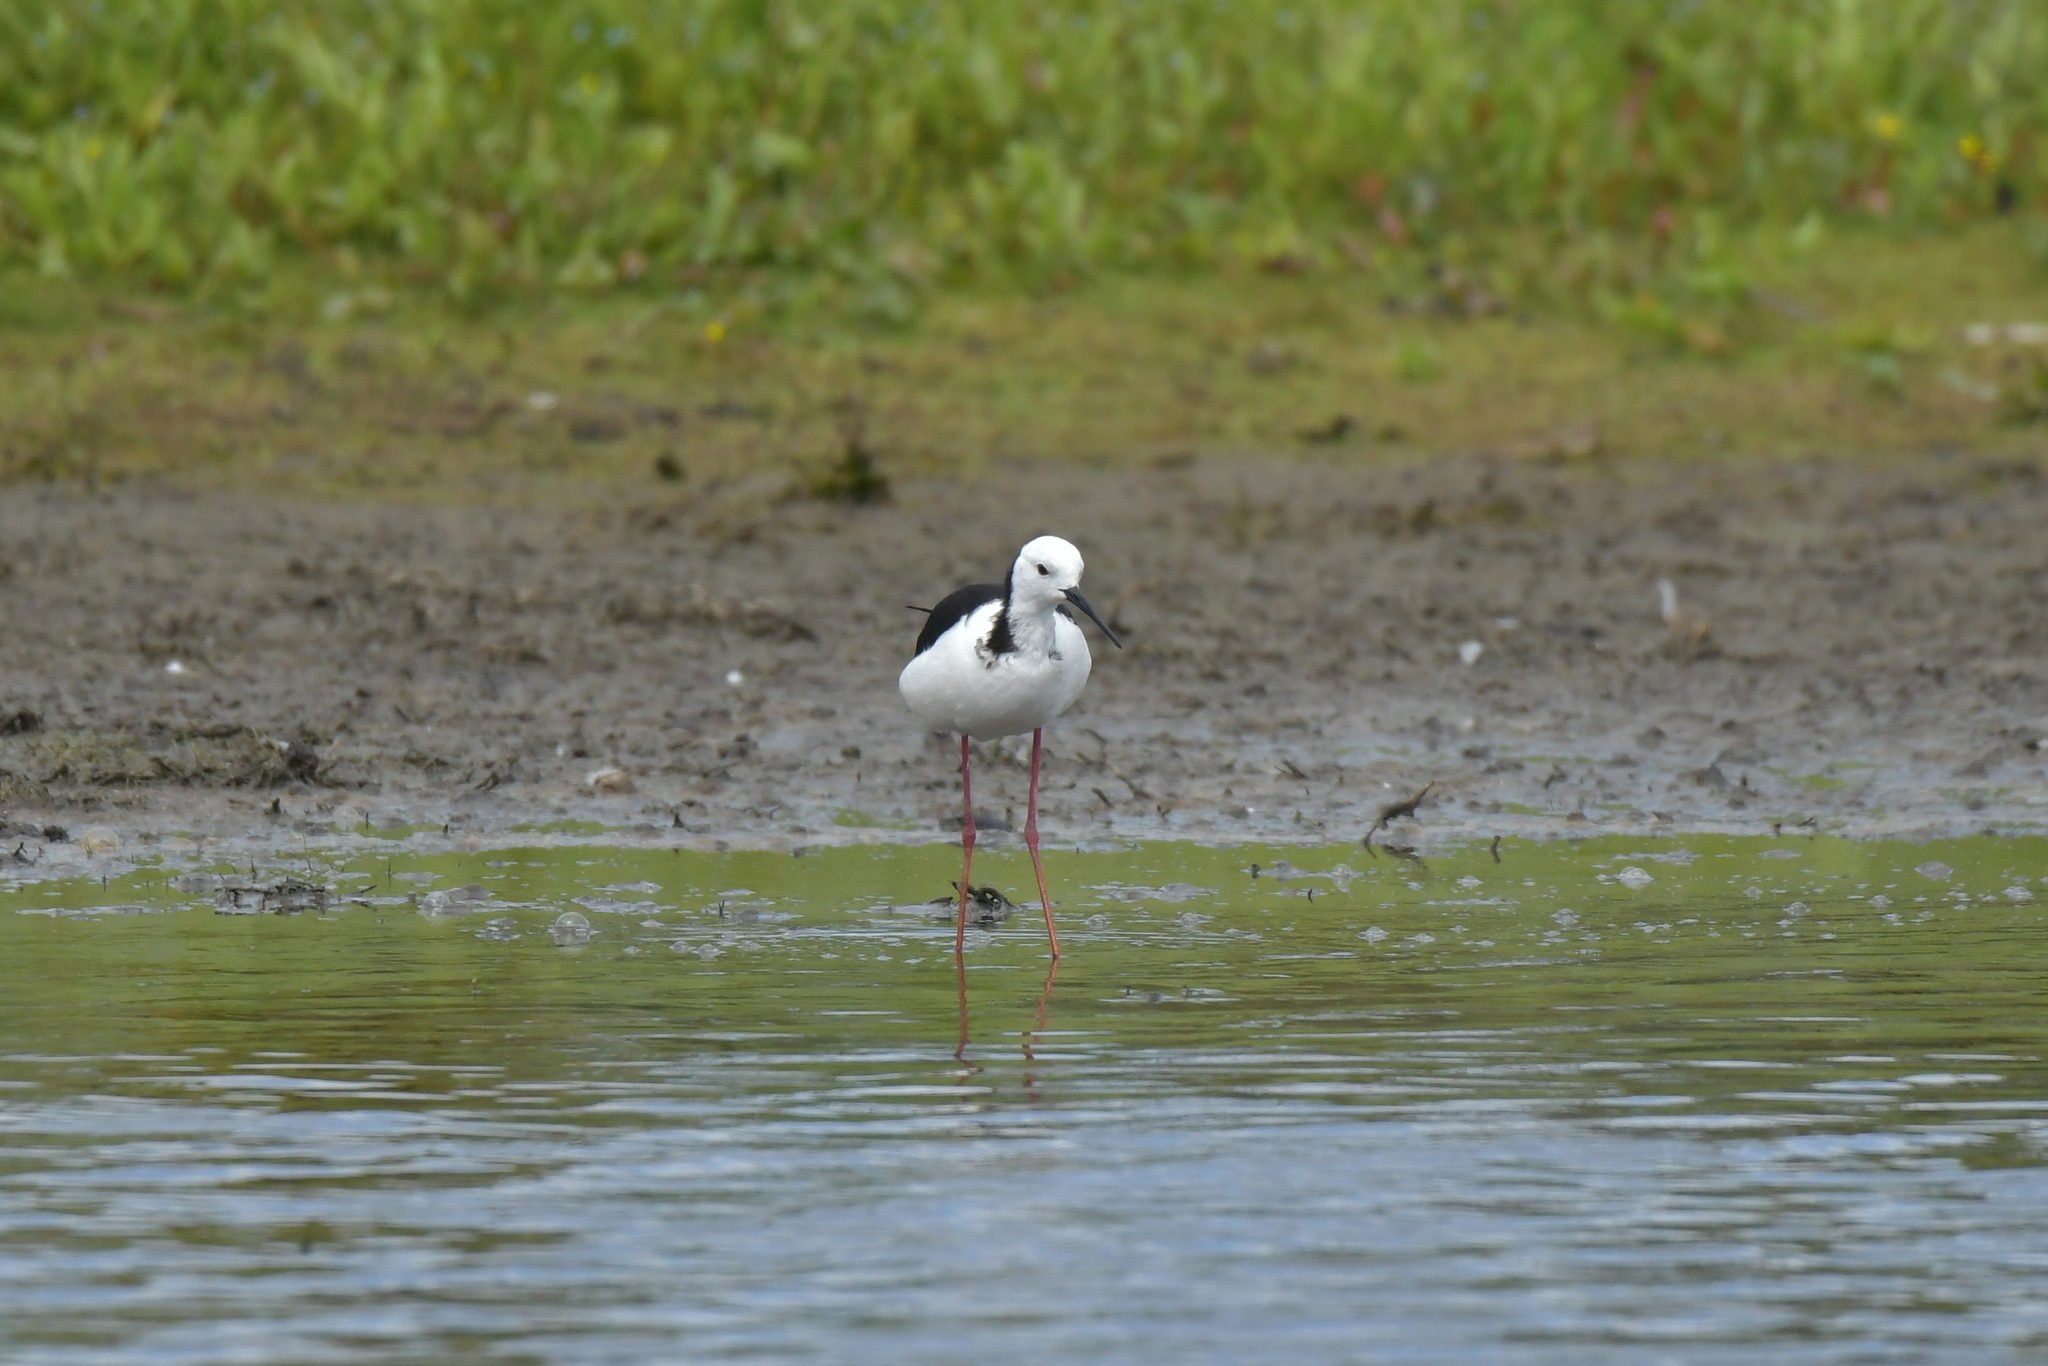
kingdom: Animalia
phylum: Chordata
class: Aves
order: Charadriiformes
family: Recurvirostridae
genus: Himantopus
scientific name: Himantopus leucocephalus
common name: White-headed stilt
